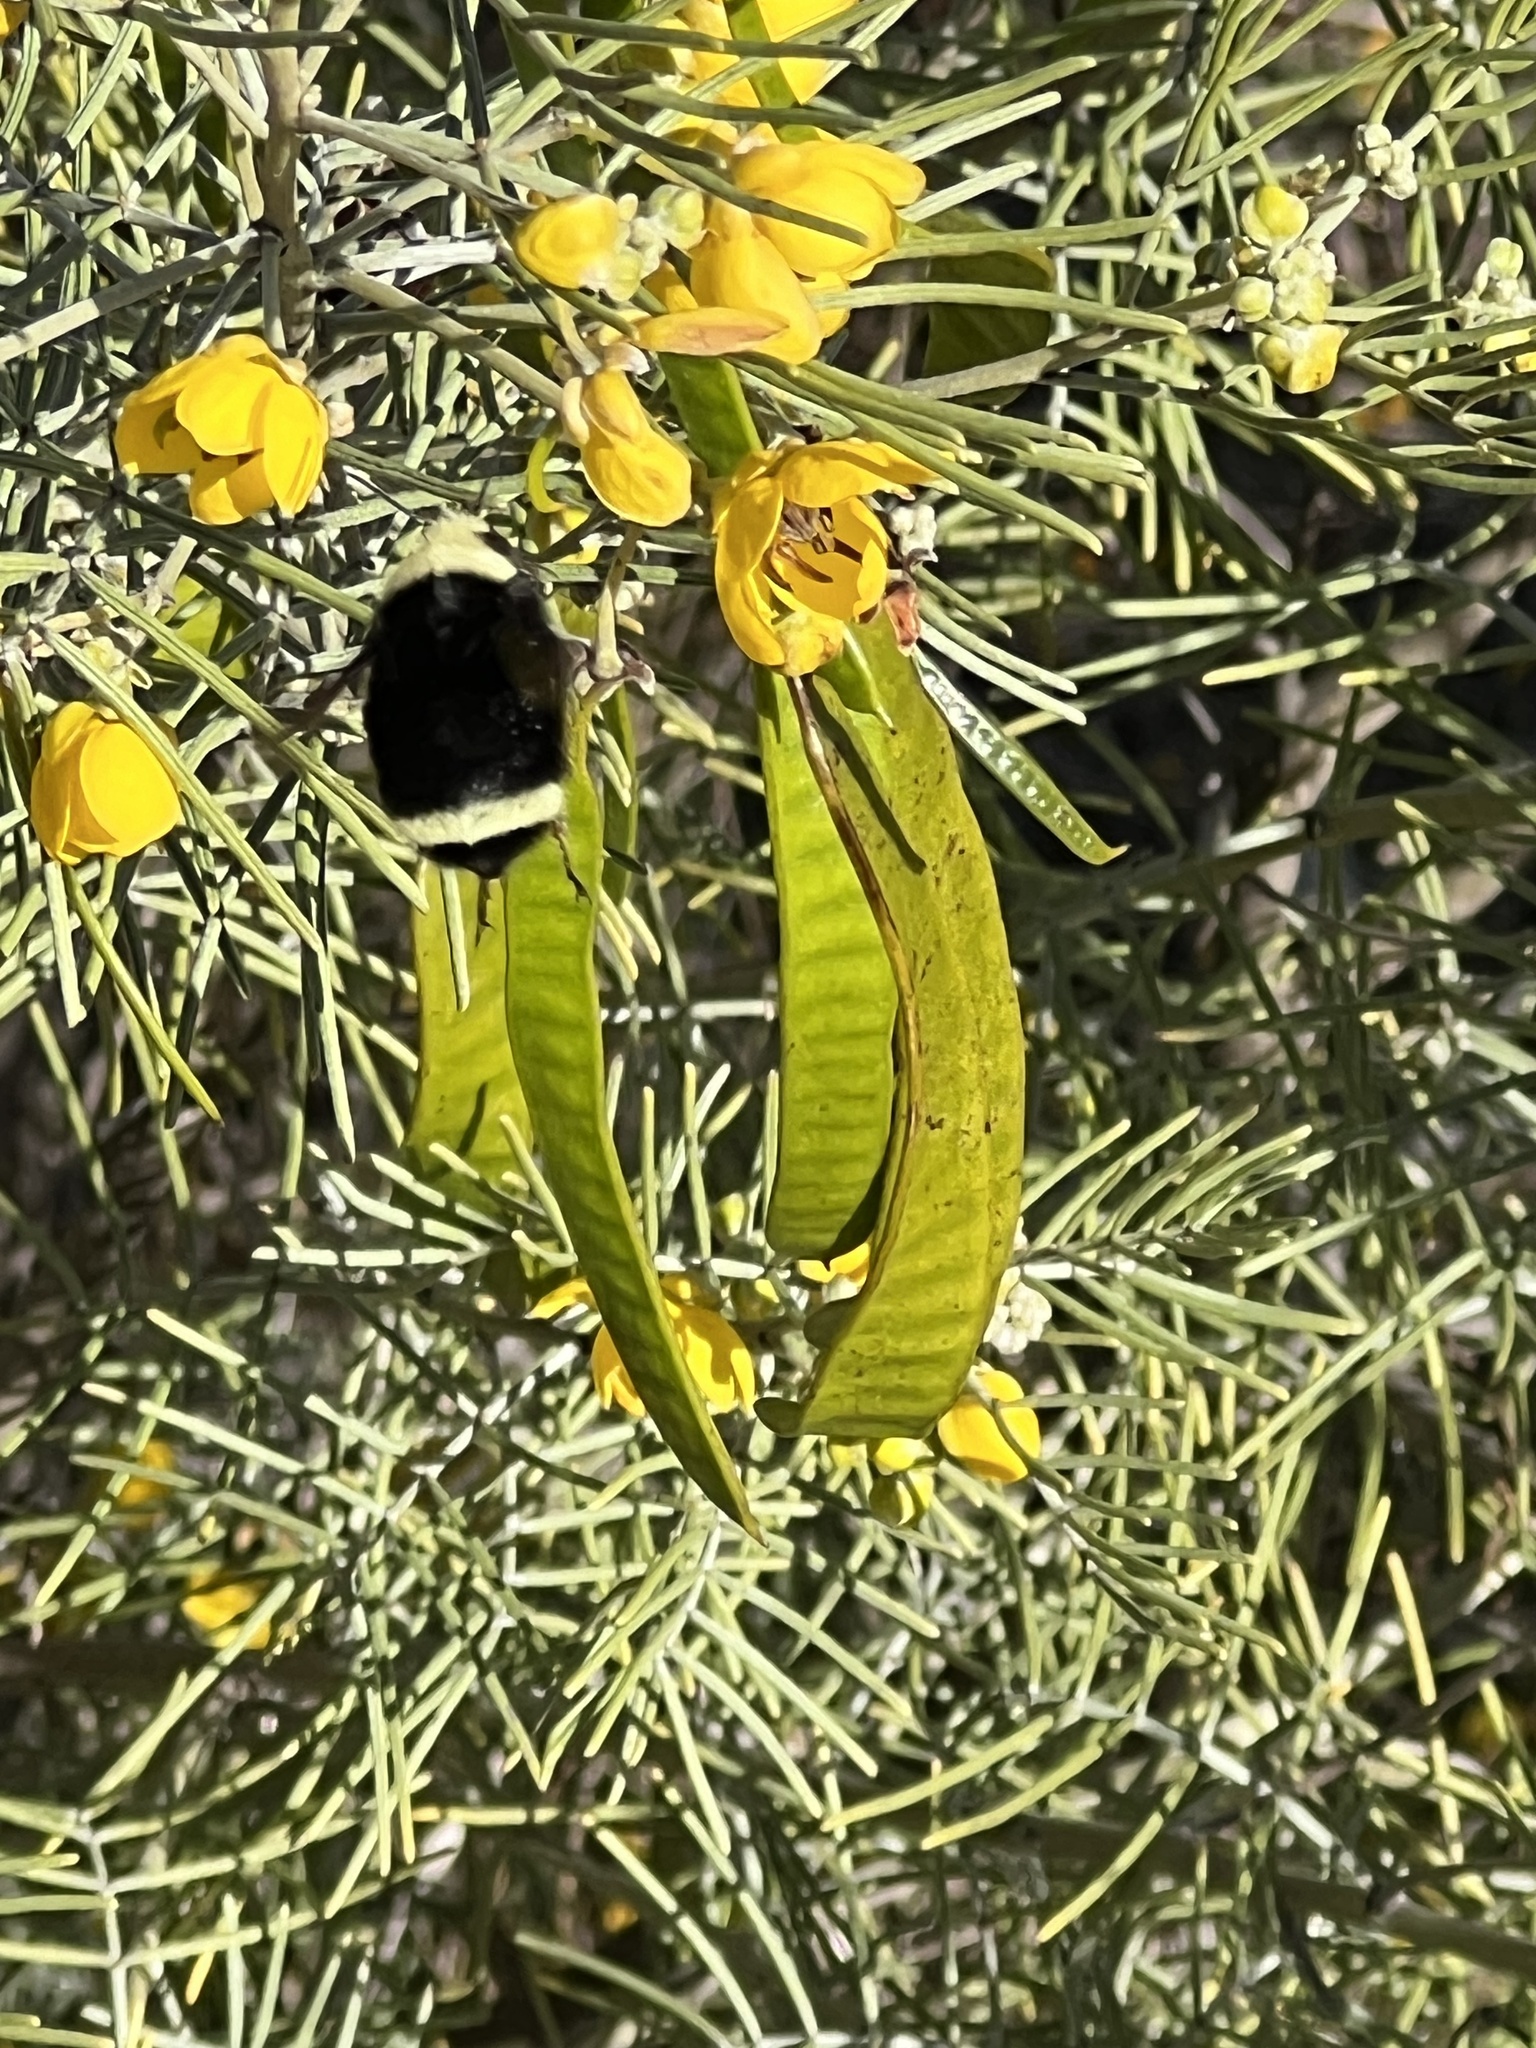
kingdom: Animalia
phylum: Arthropoda
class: Insecta
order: Hymenoptera
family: Apidae
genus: Bombus
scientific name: Bombus vosnesenskii
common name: Vosnesensky bumble bee
